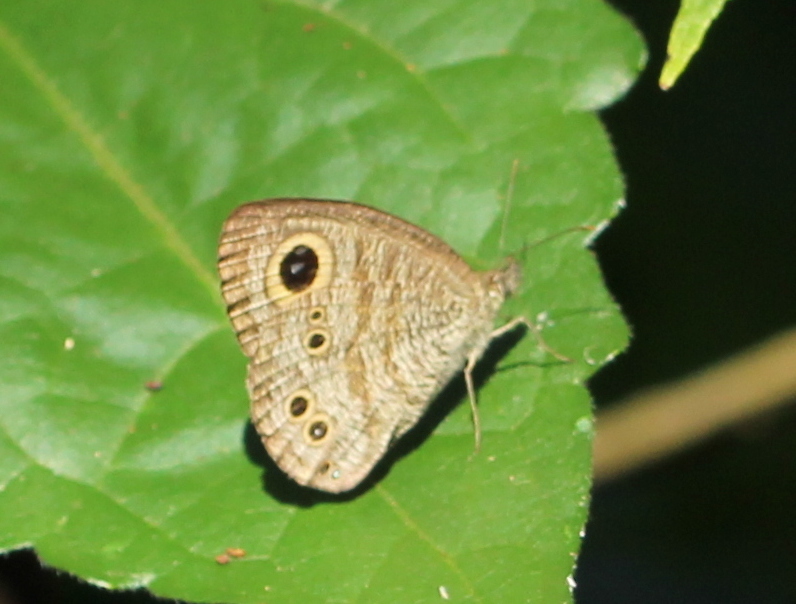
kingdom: Animalia
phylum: Arthropoda
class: Insecta
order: Lepidoptera
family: Nymphalidae
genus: Ypthima
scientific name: Ypthima baldus
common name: Common five-ring
